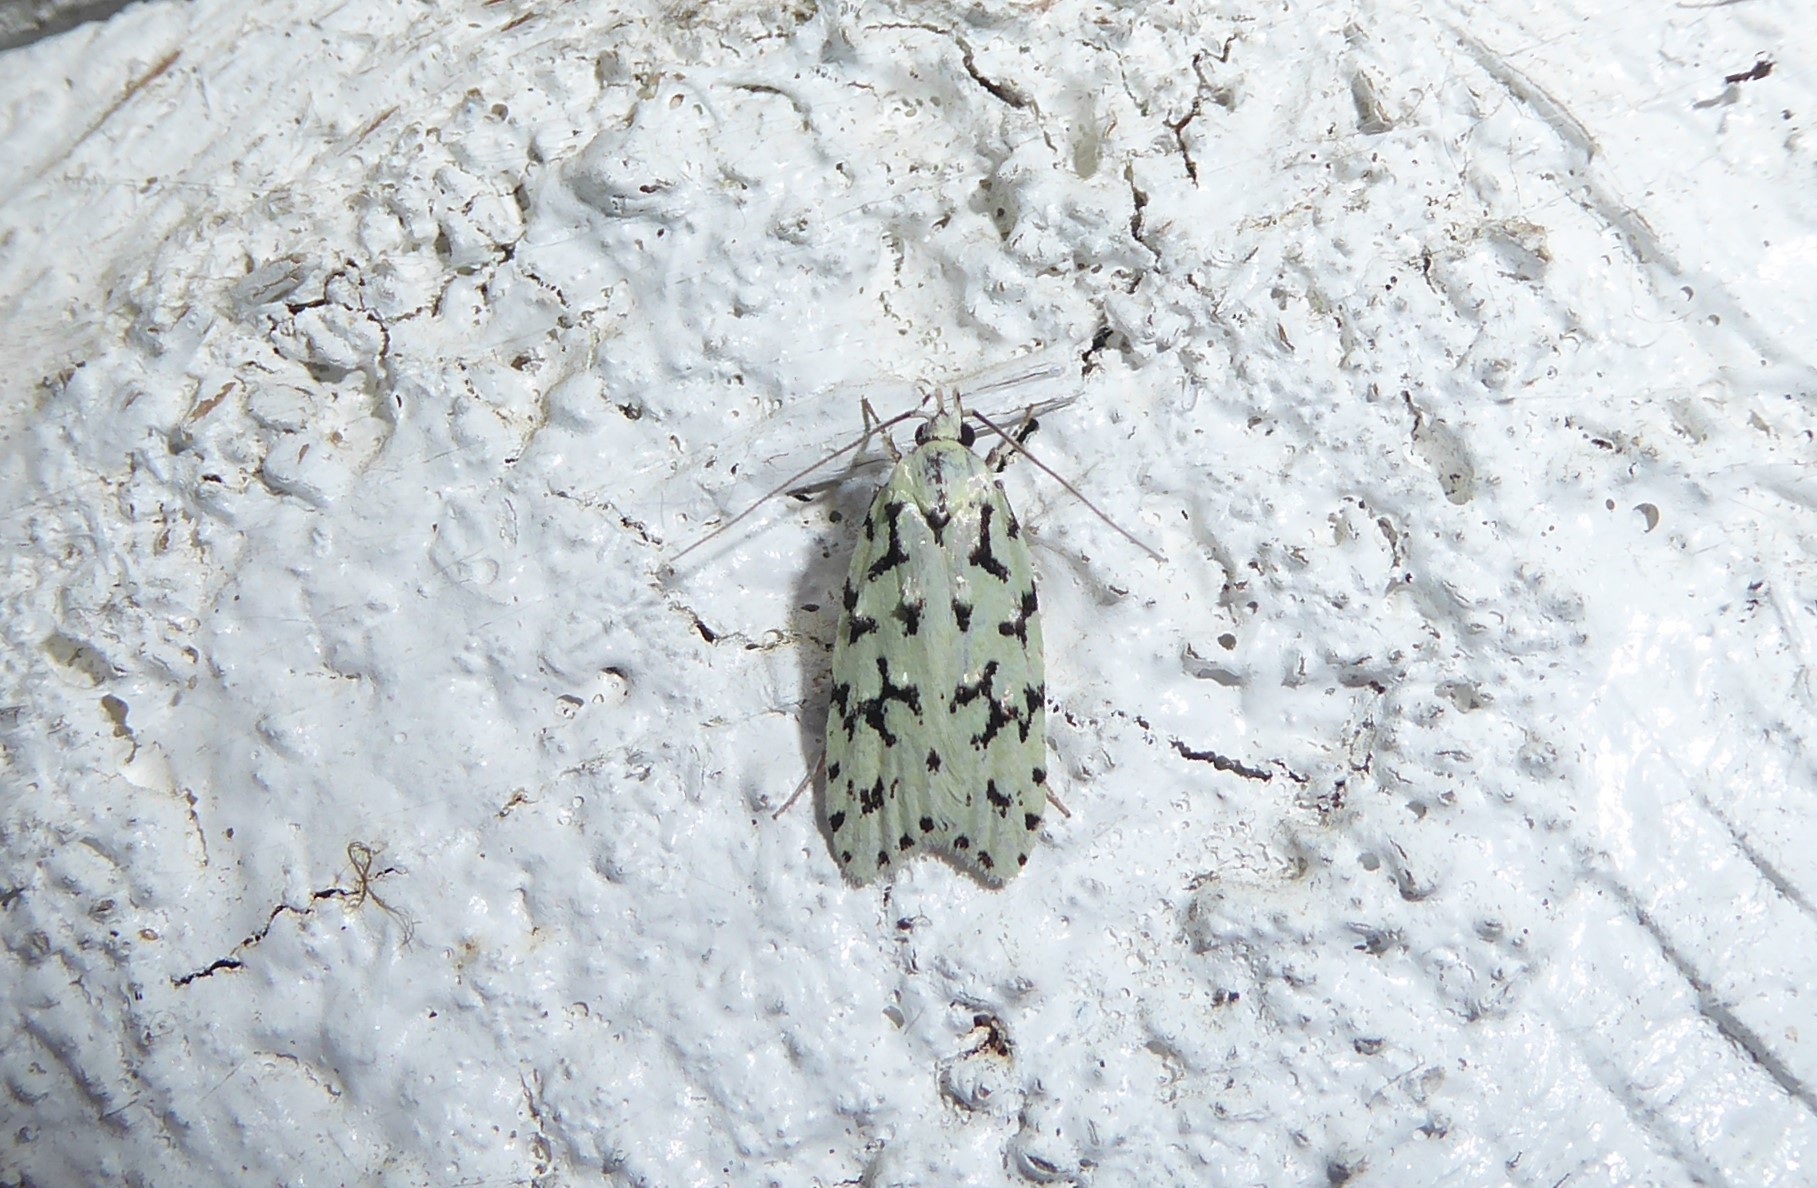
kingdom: Animalia
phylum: Arthropoda
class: Insecta
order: Lepidoptera
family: Oecophoridae
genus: Izatha
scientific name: Izatha huttoni
